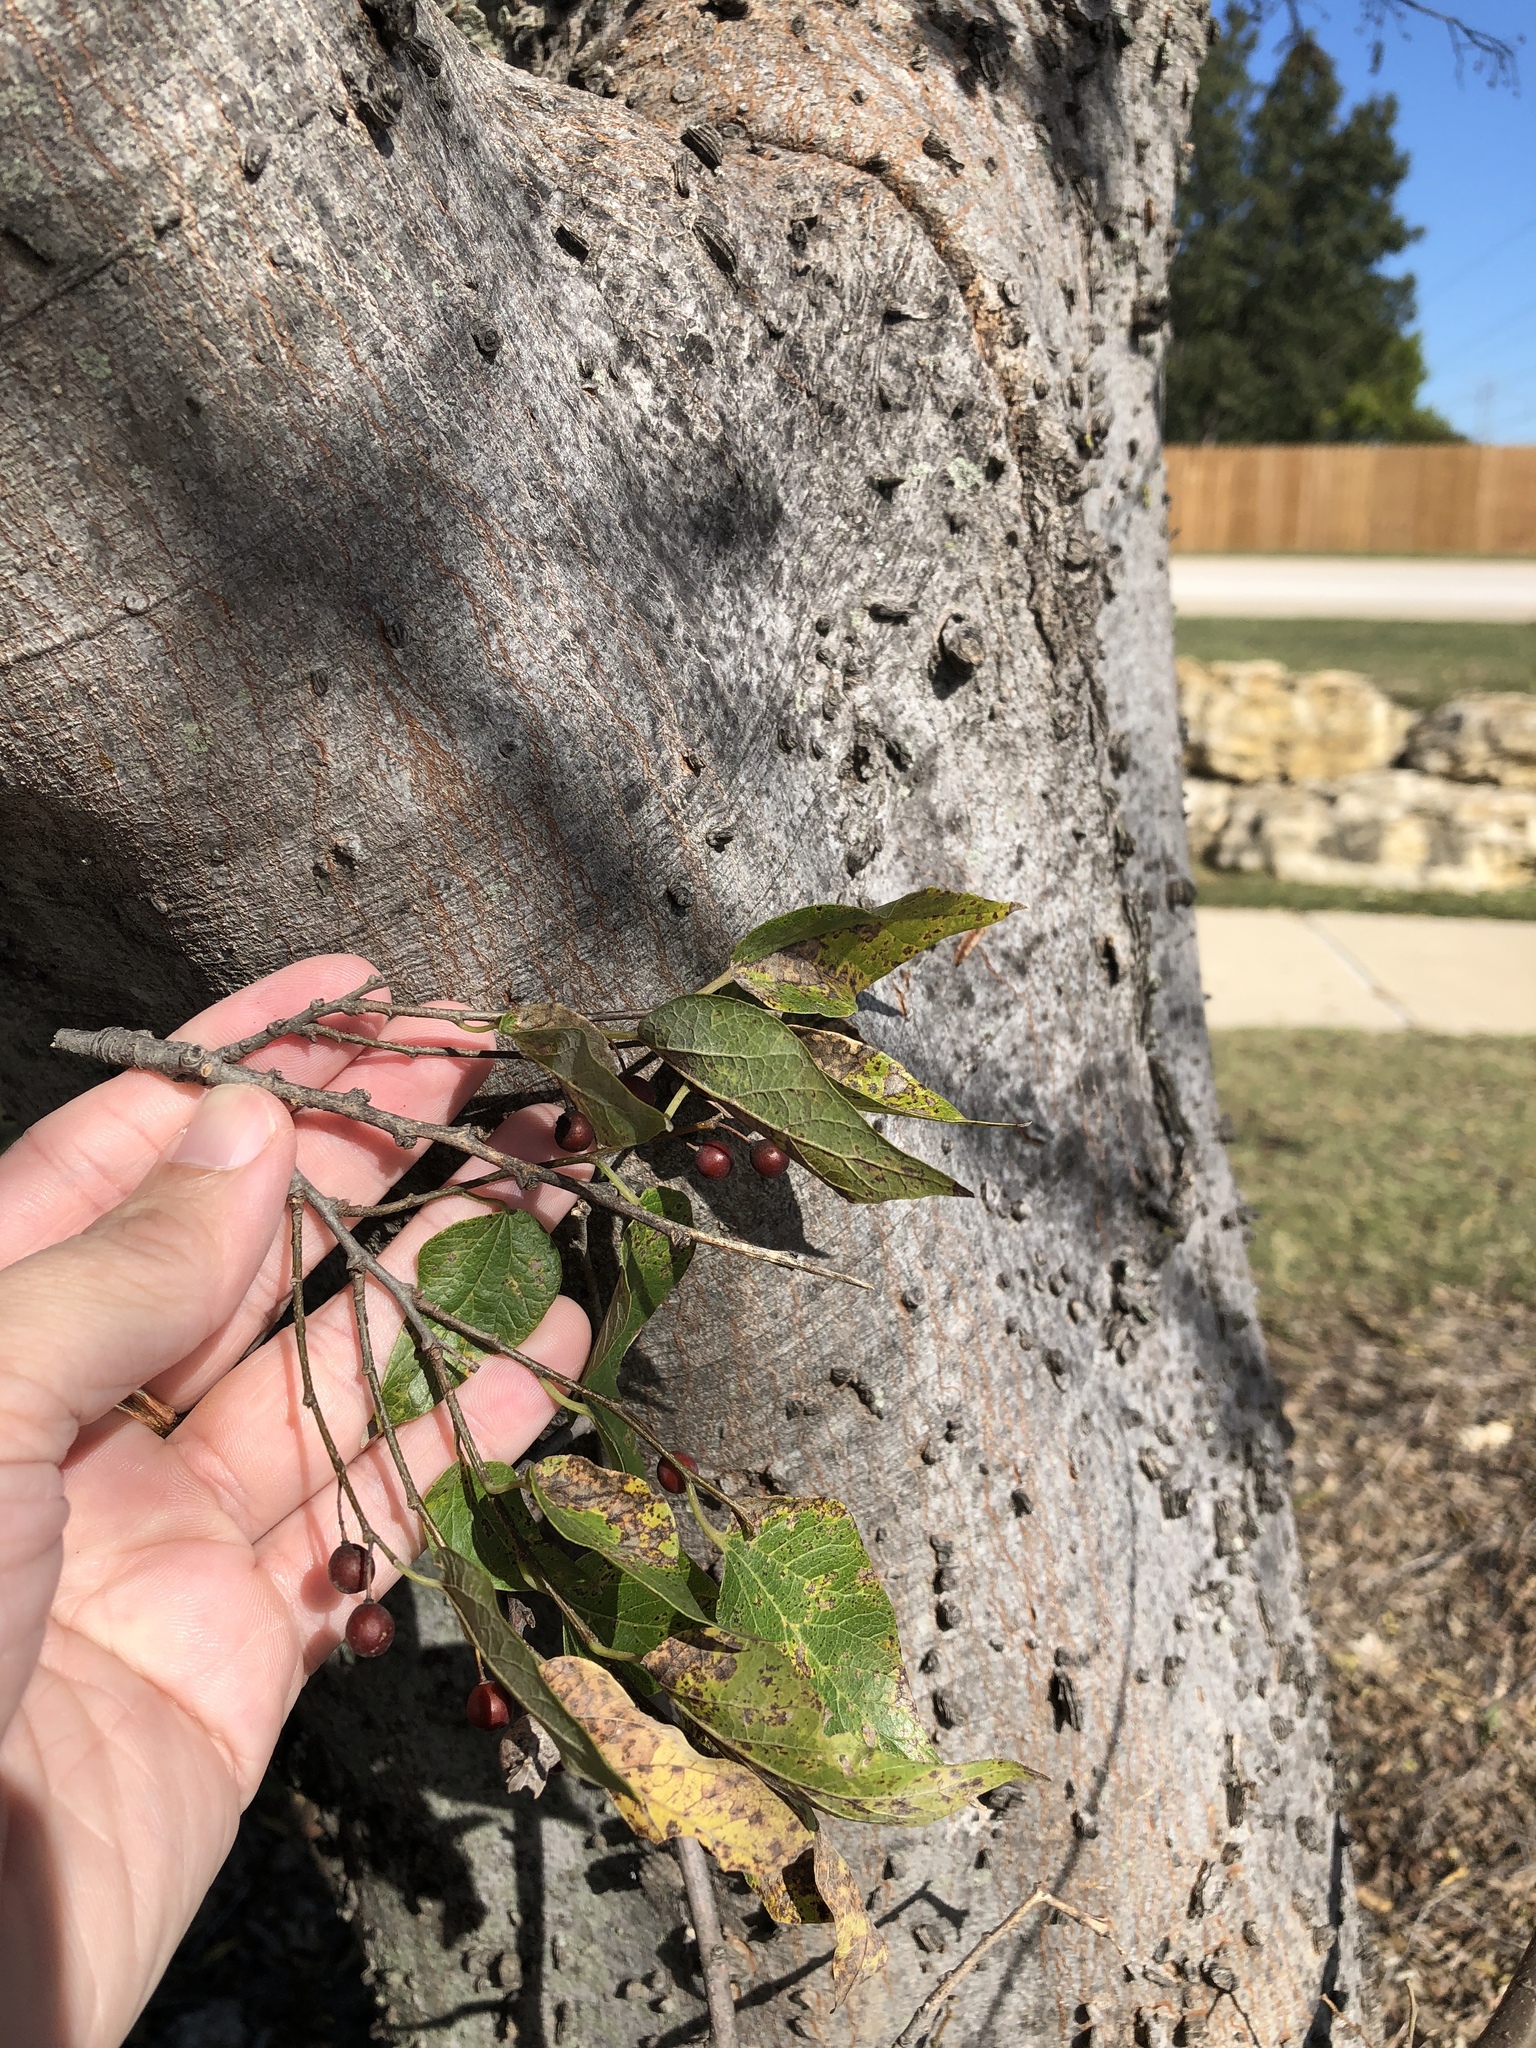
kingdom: Plantae
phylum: Tracheophyta
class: Magnoliopsida
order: Rosales
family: Cannabaceae
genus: Celtis
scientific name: Celtis laevigata
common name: Sugarberry
